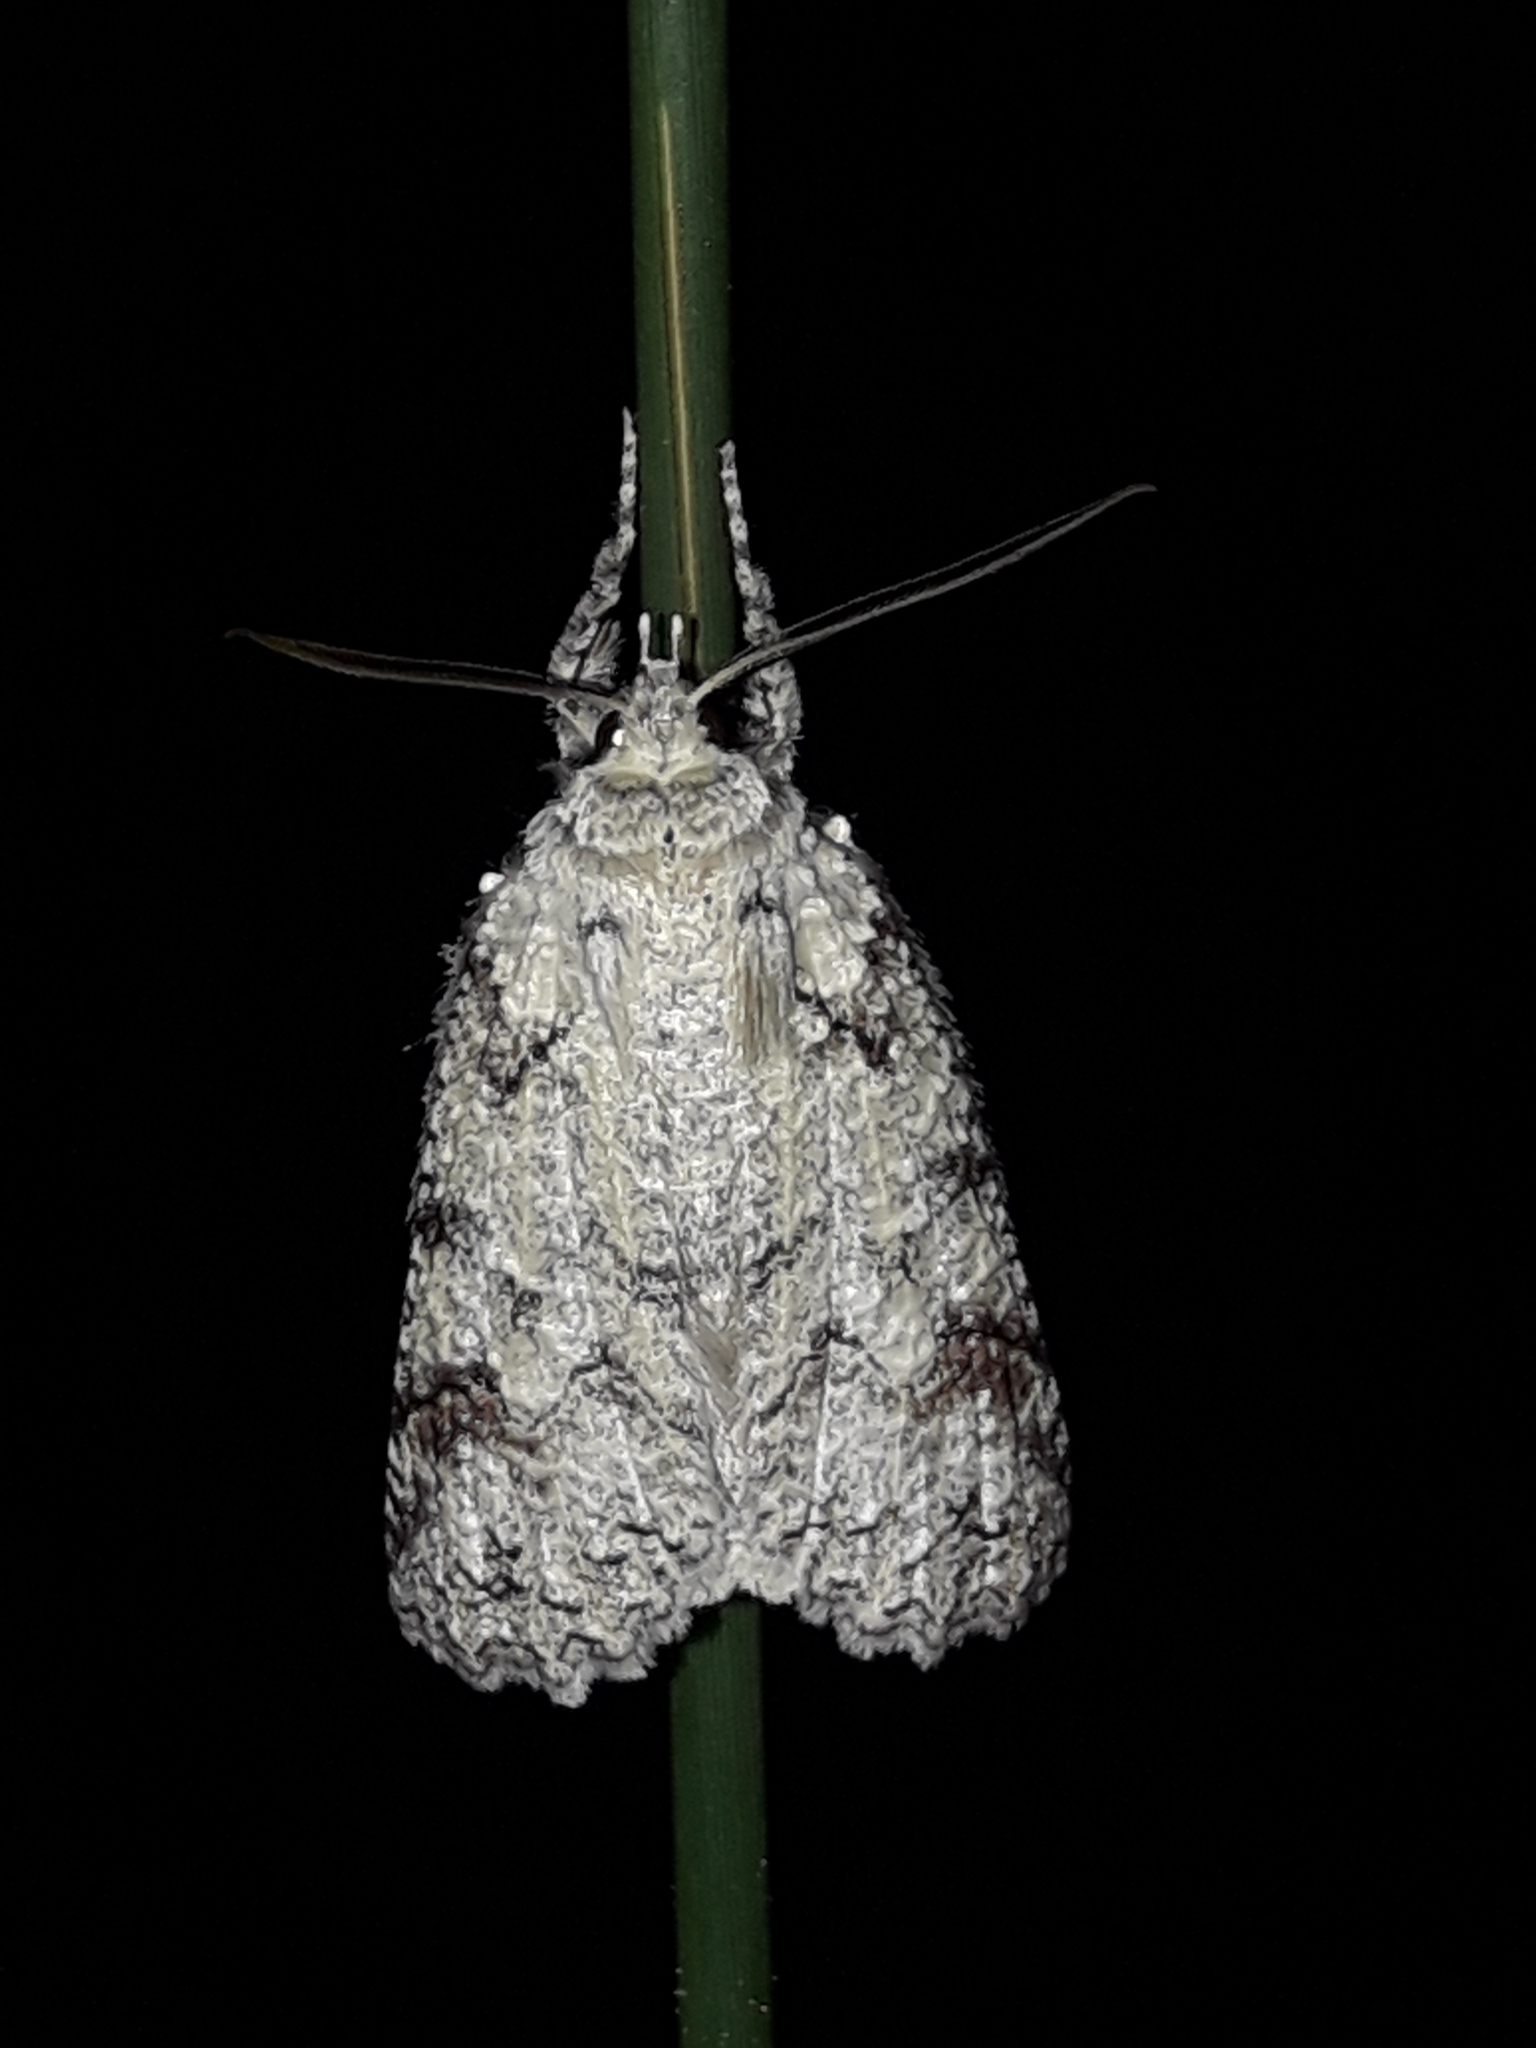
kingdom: Animalia
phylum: Arthropoda
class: Insecta
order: Lepidoptera
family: Geometridae
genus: Declana
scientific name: Declana floccosa
